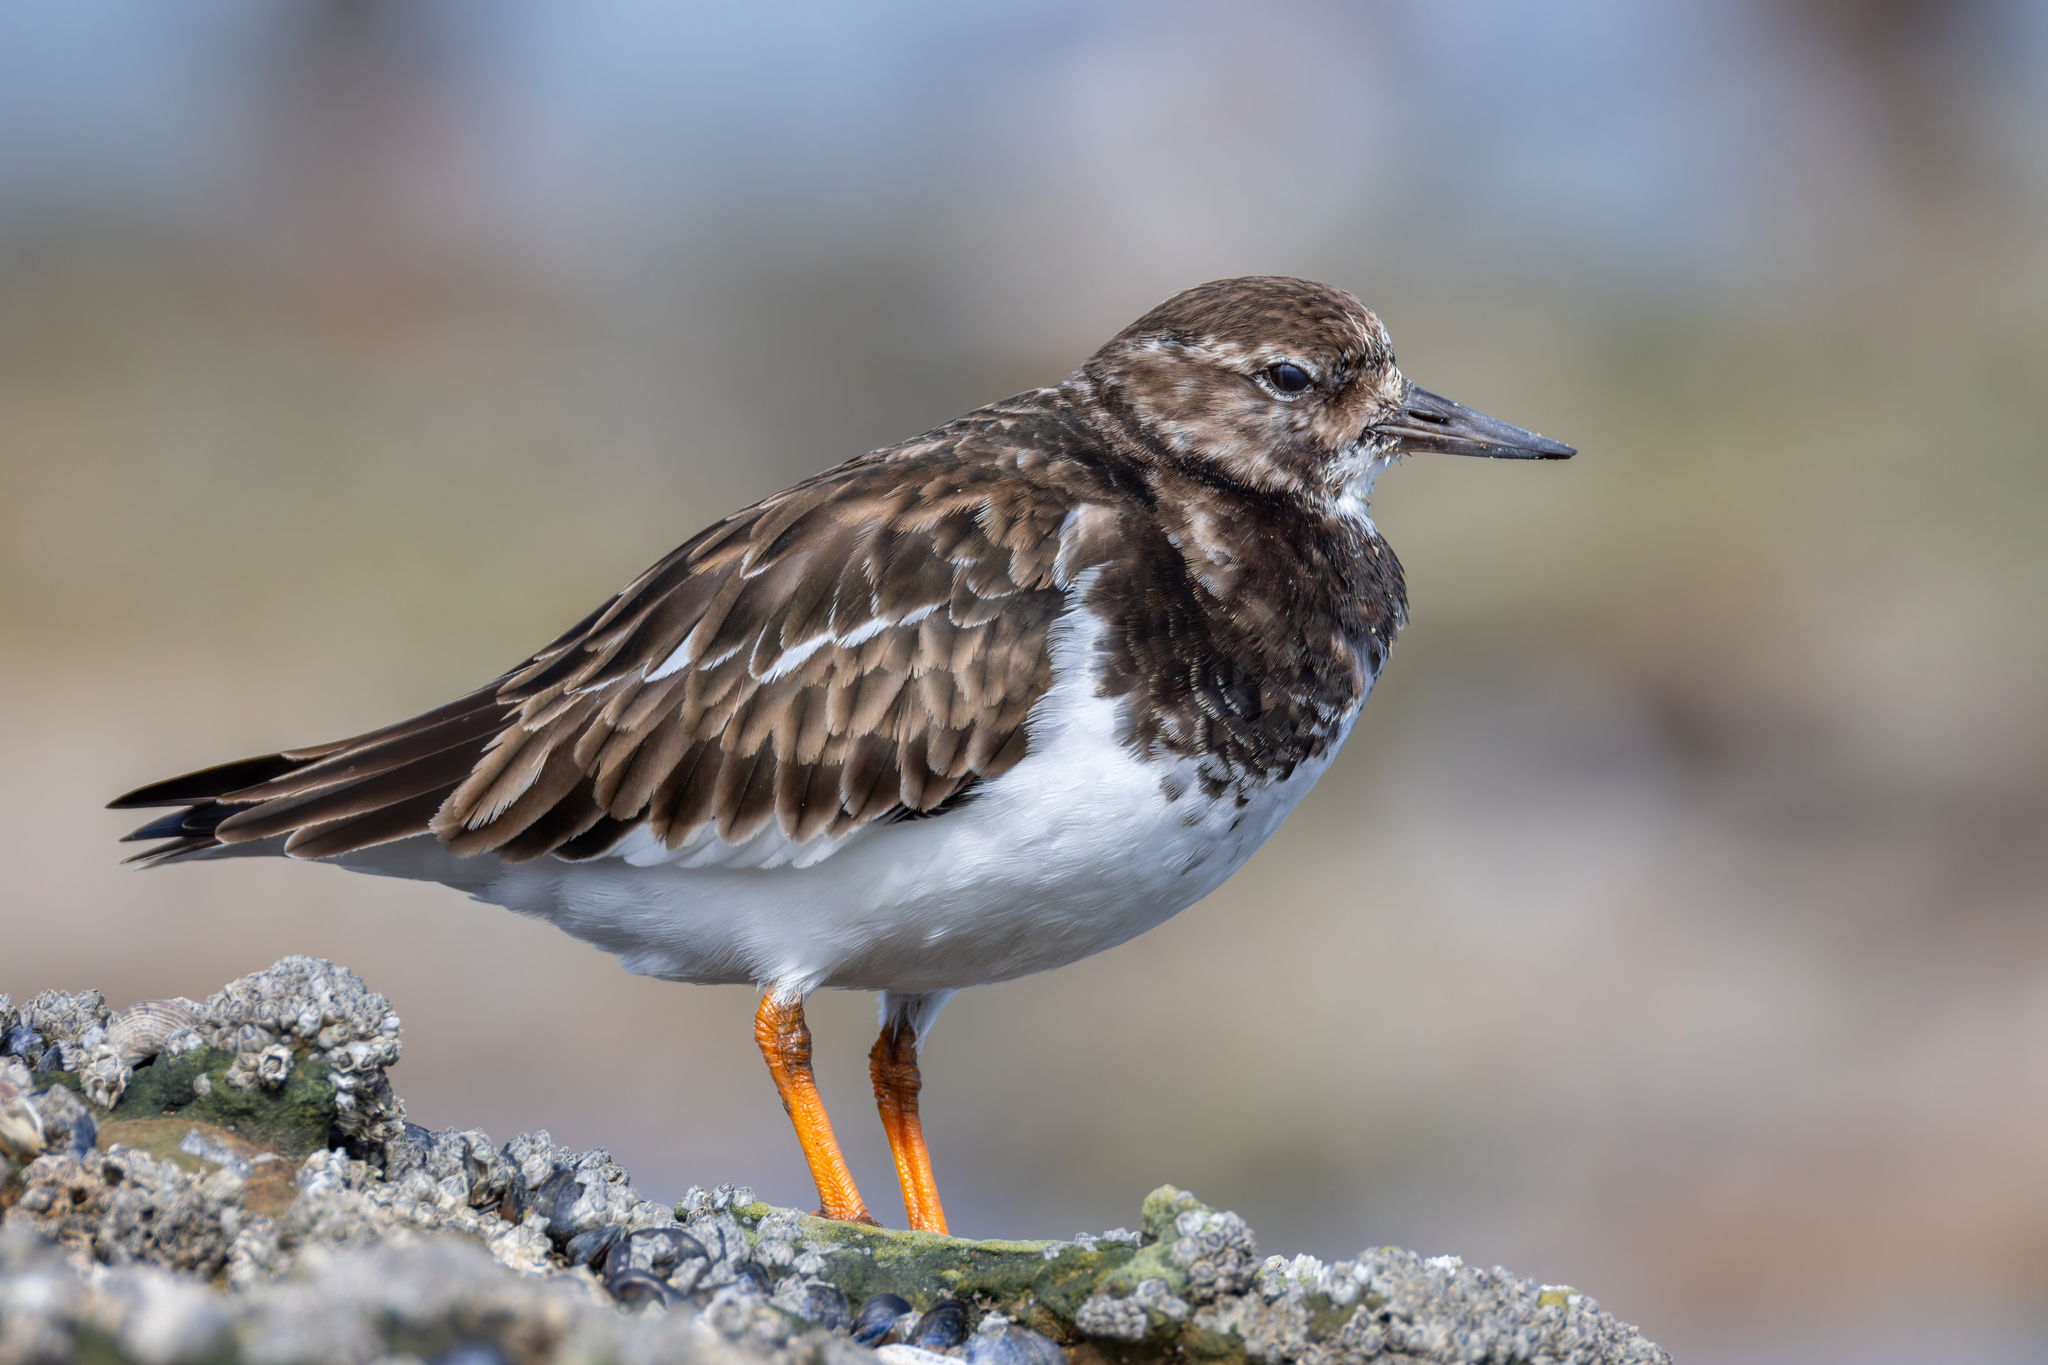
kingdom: Animalia
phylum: Chordata
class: Aves
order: Charadriiformes
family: Scolopacidae
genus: Arenaria
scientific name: Arenaria interpres
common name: Ruddy turnstone
